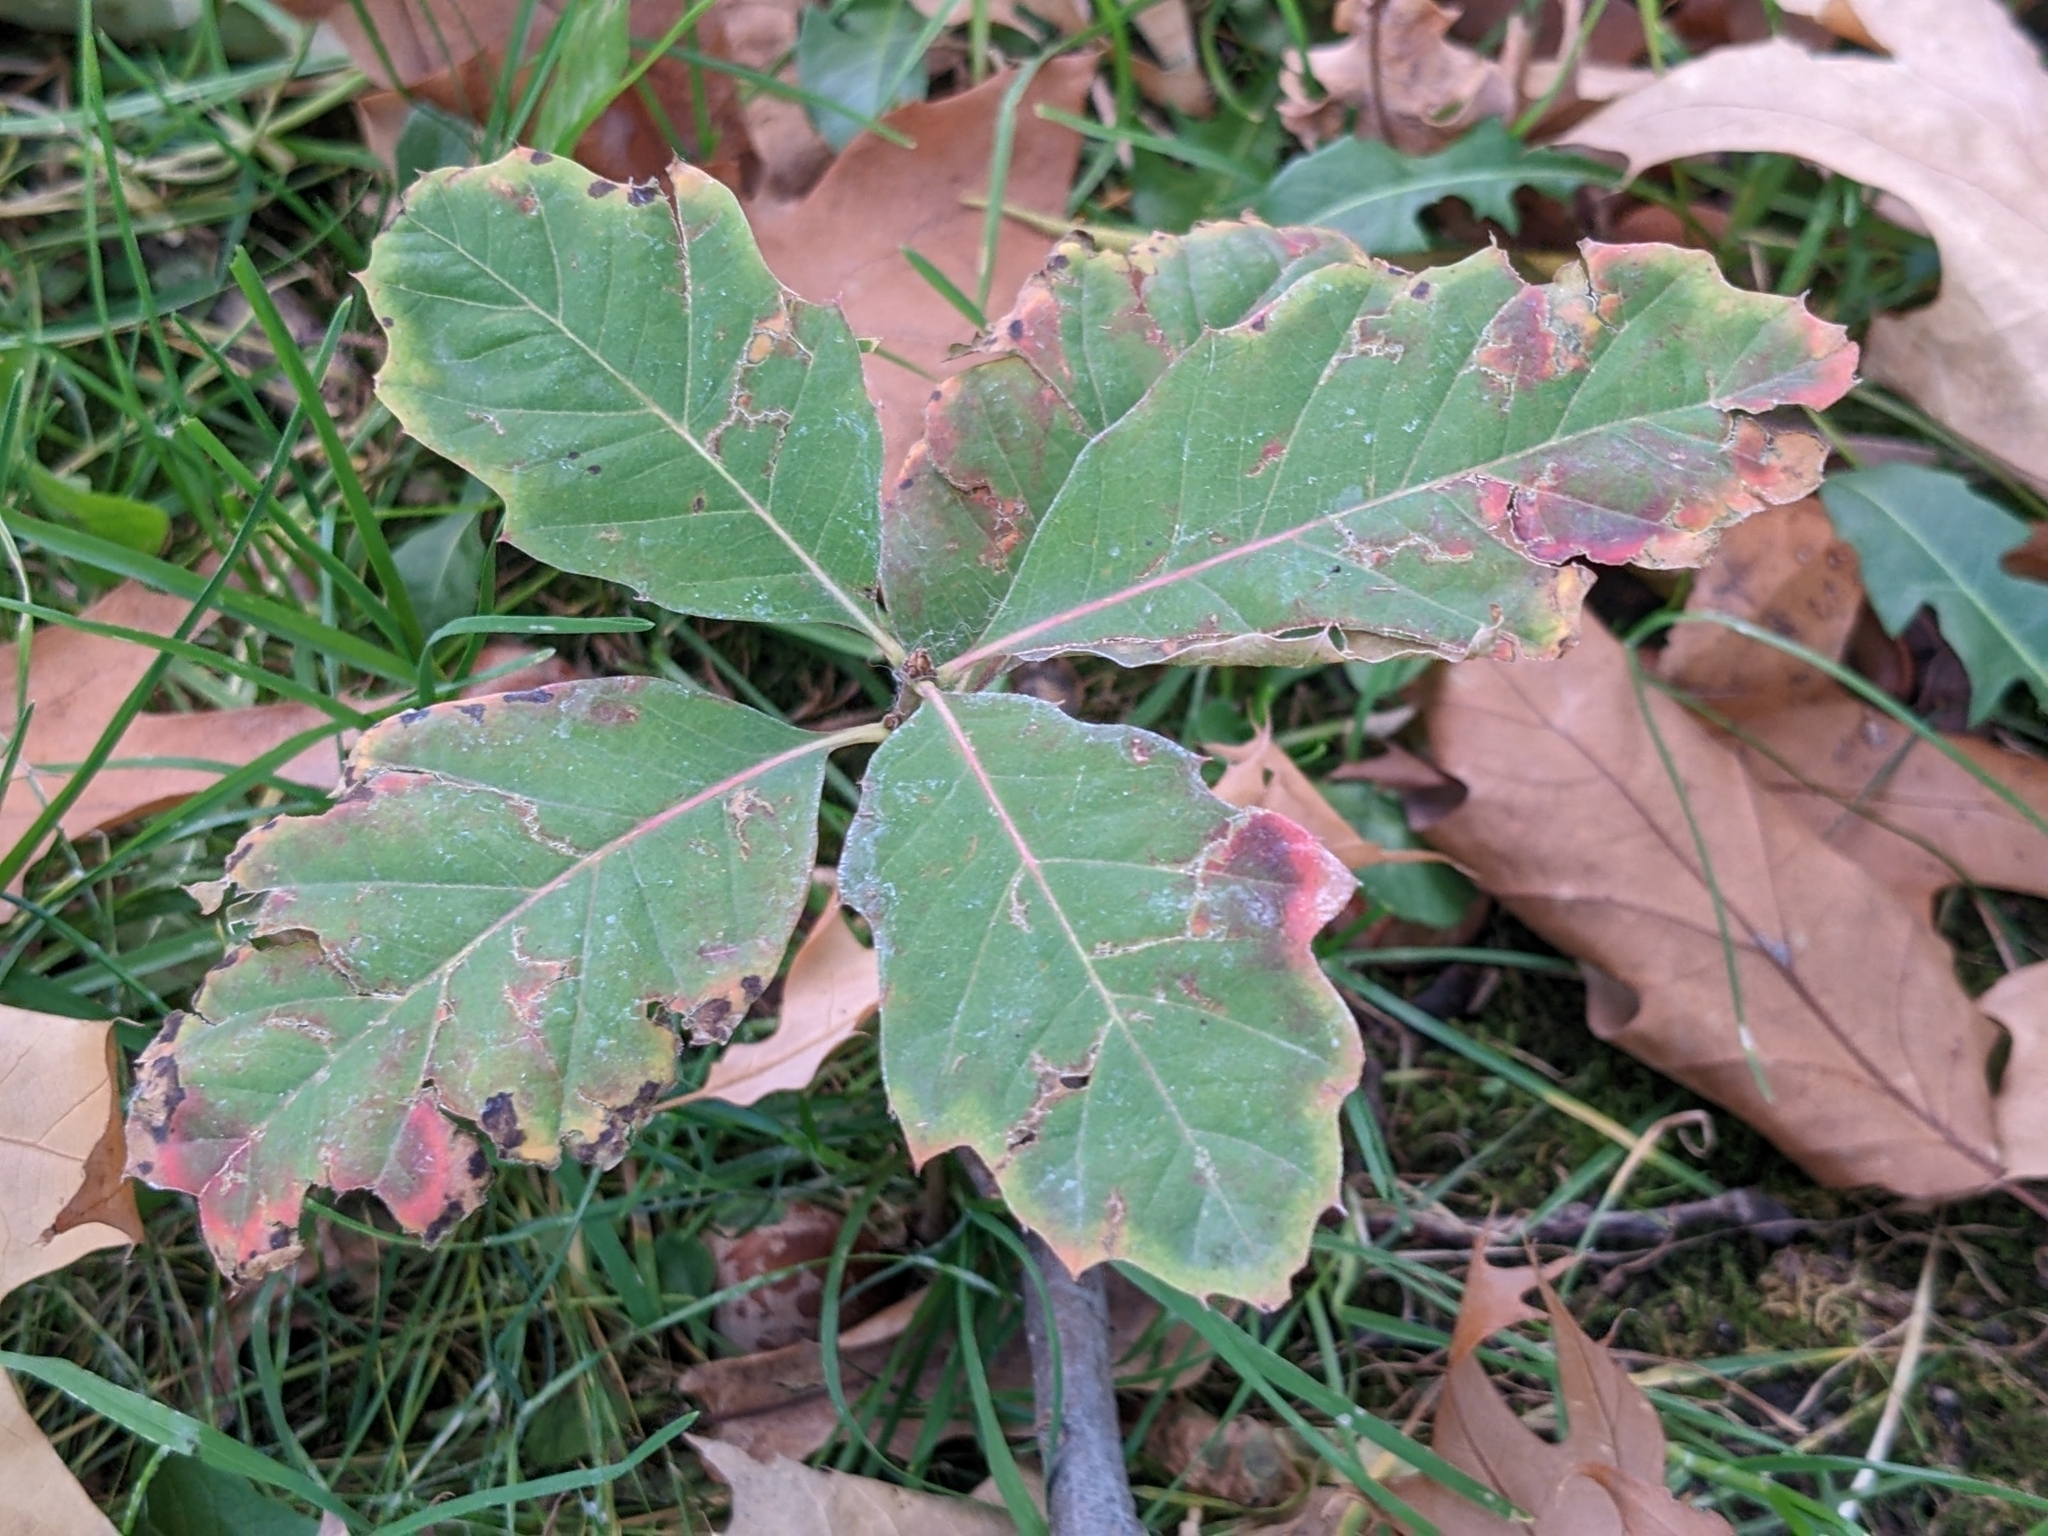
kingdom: Plantae
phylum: Tracheophyta
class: Magnoliopsida
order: Fagales
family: Fagaceae
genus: Quercus
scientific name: Quercus rubra
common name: Red oak
